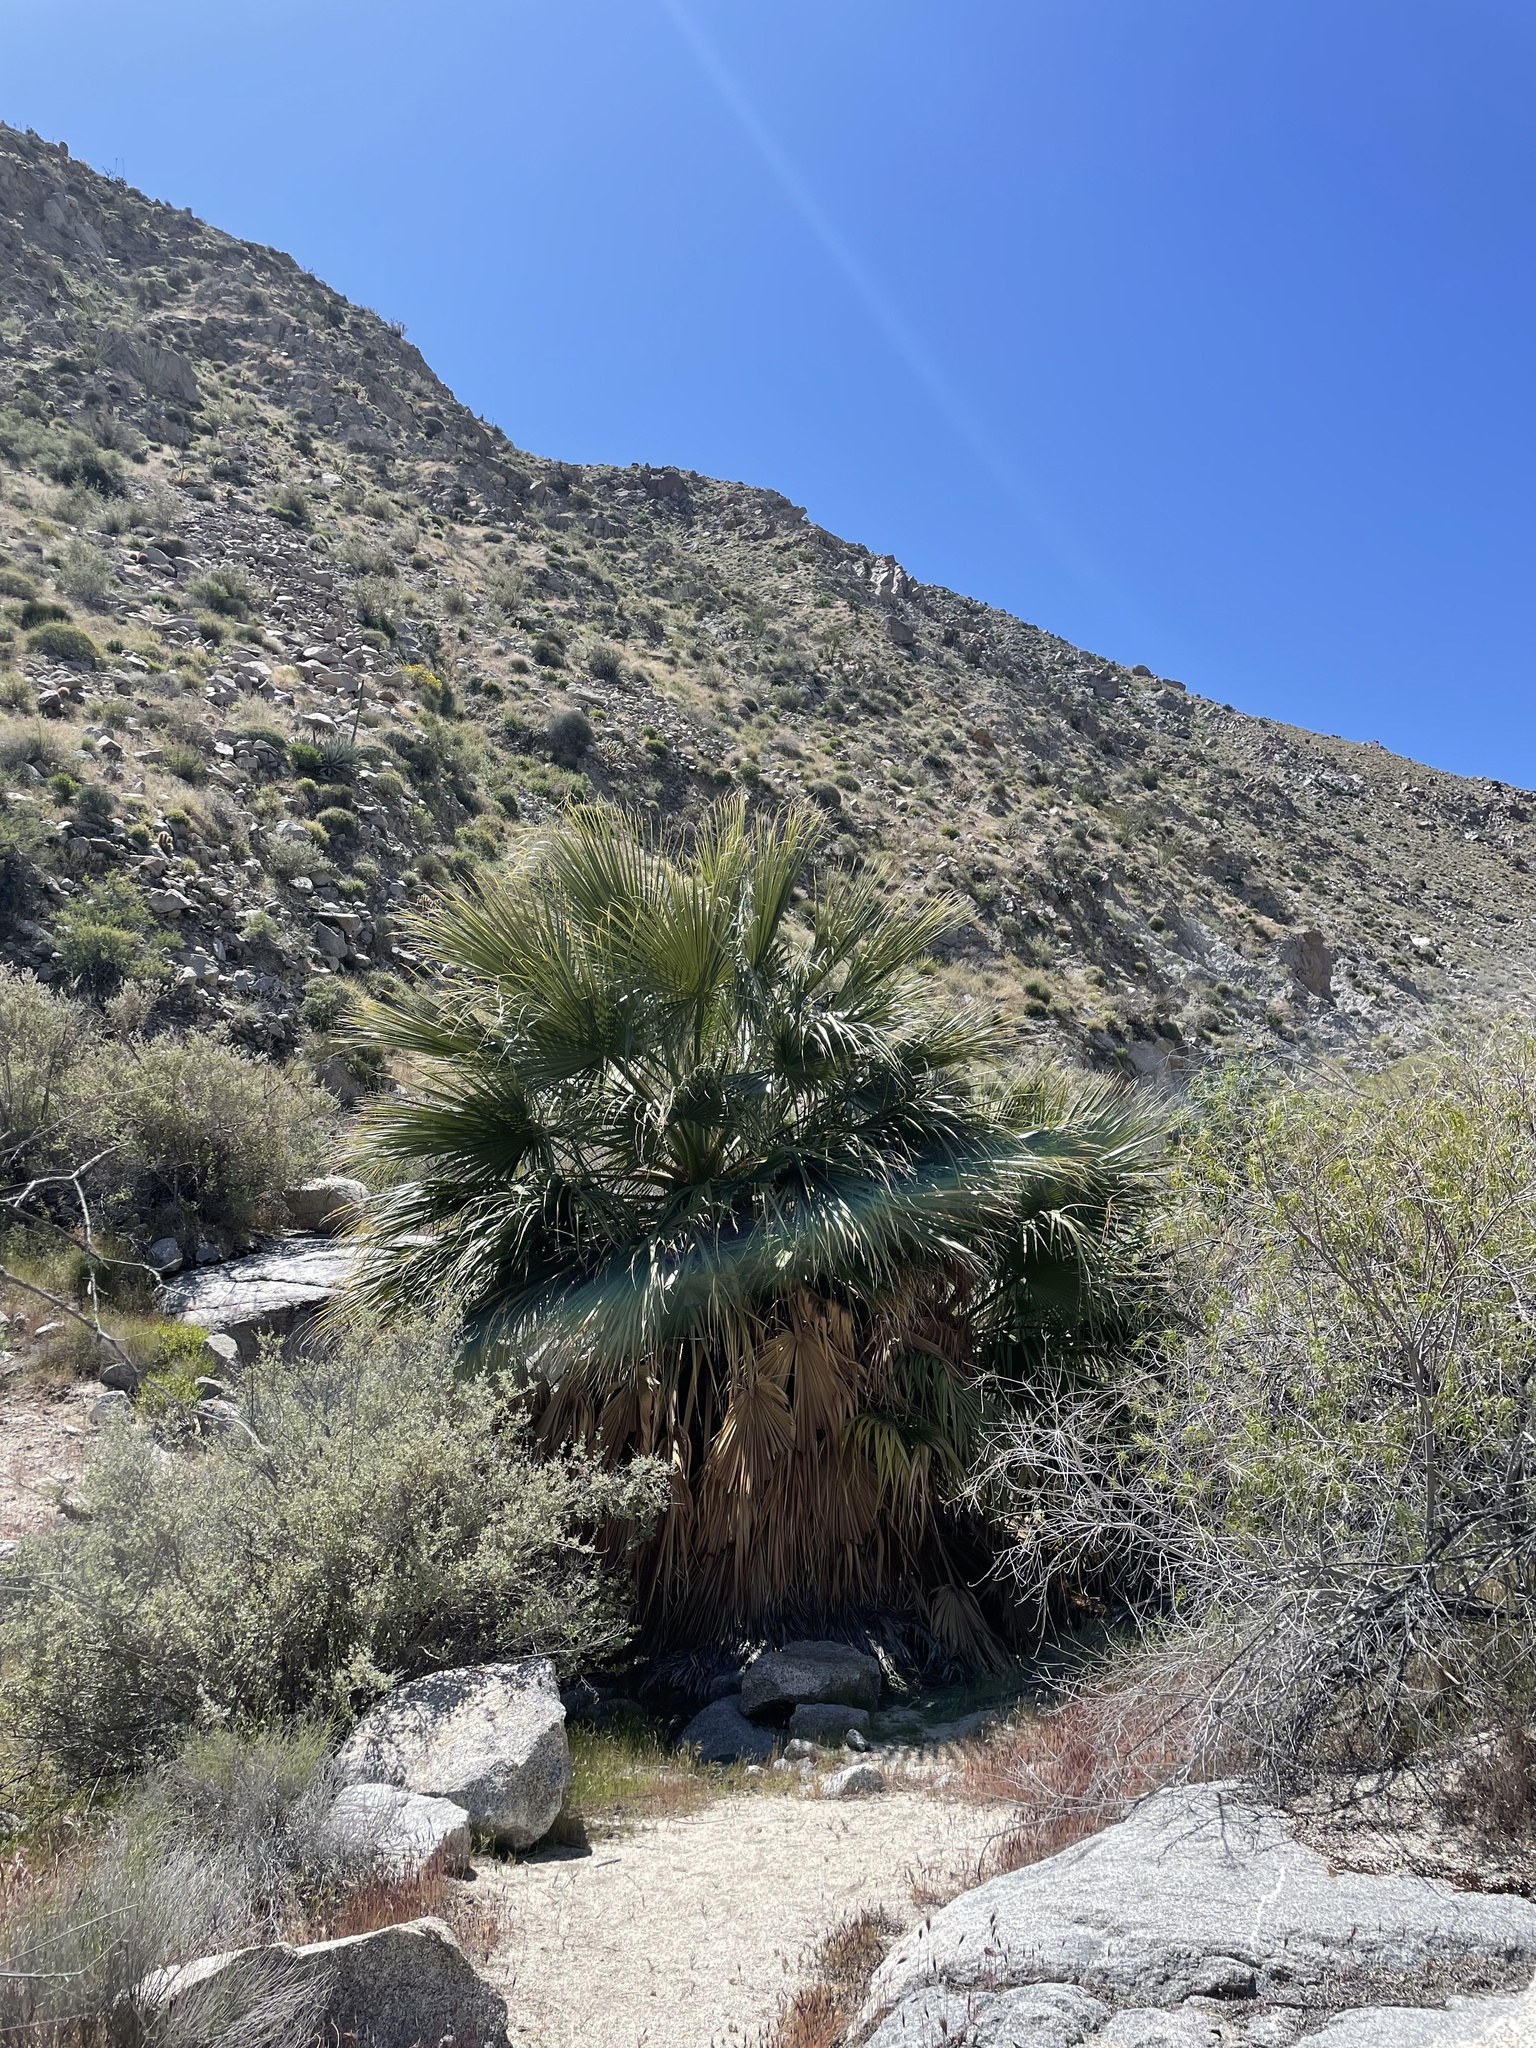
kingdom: Plantae
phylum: Tracheophyta
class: Liliopsida
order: Arecales
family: Arecaceae
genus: Washingtonia
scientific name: Washingtonia filifera
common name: California fan palm
